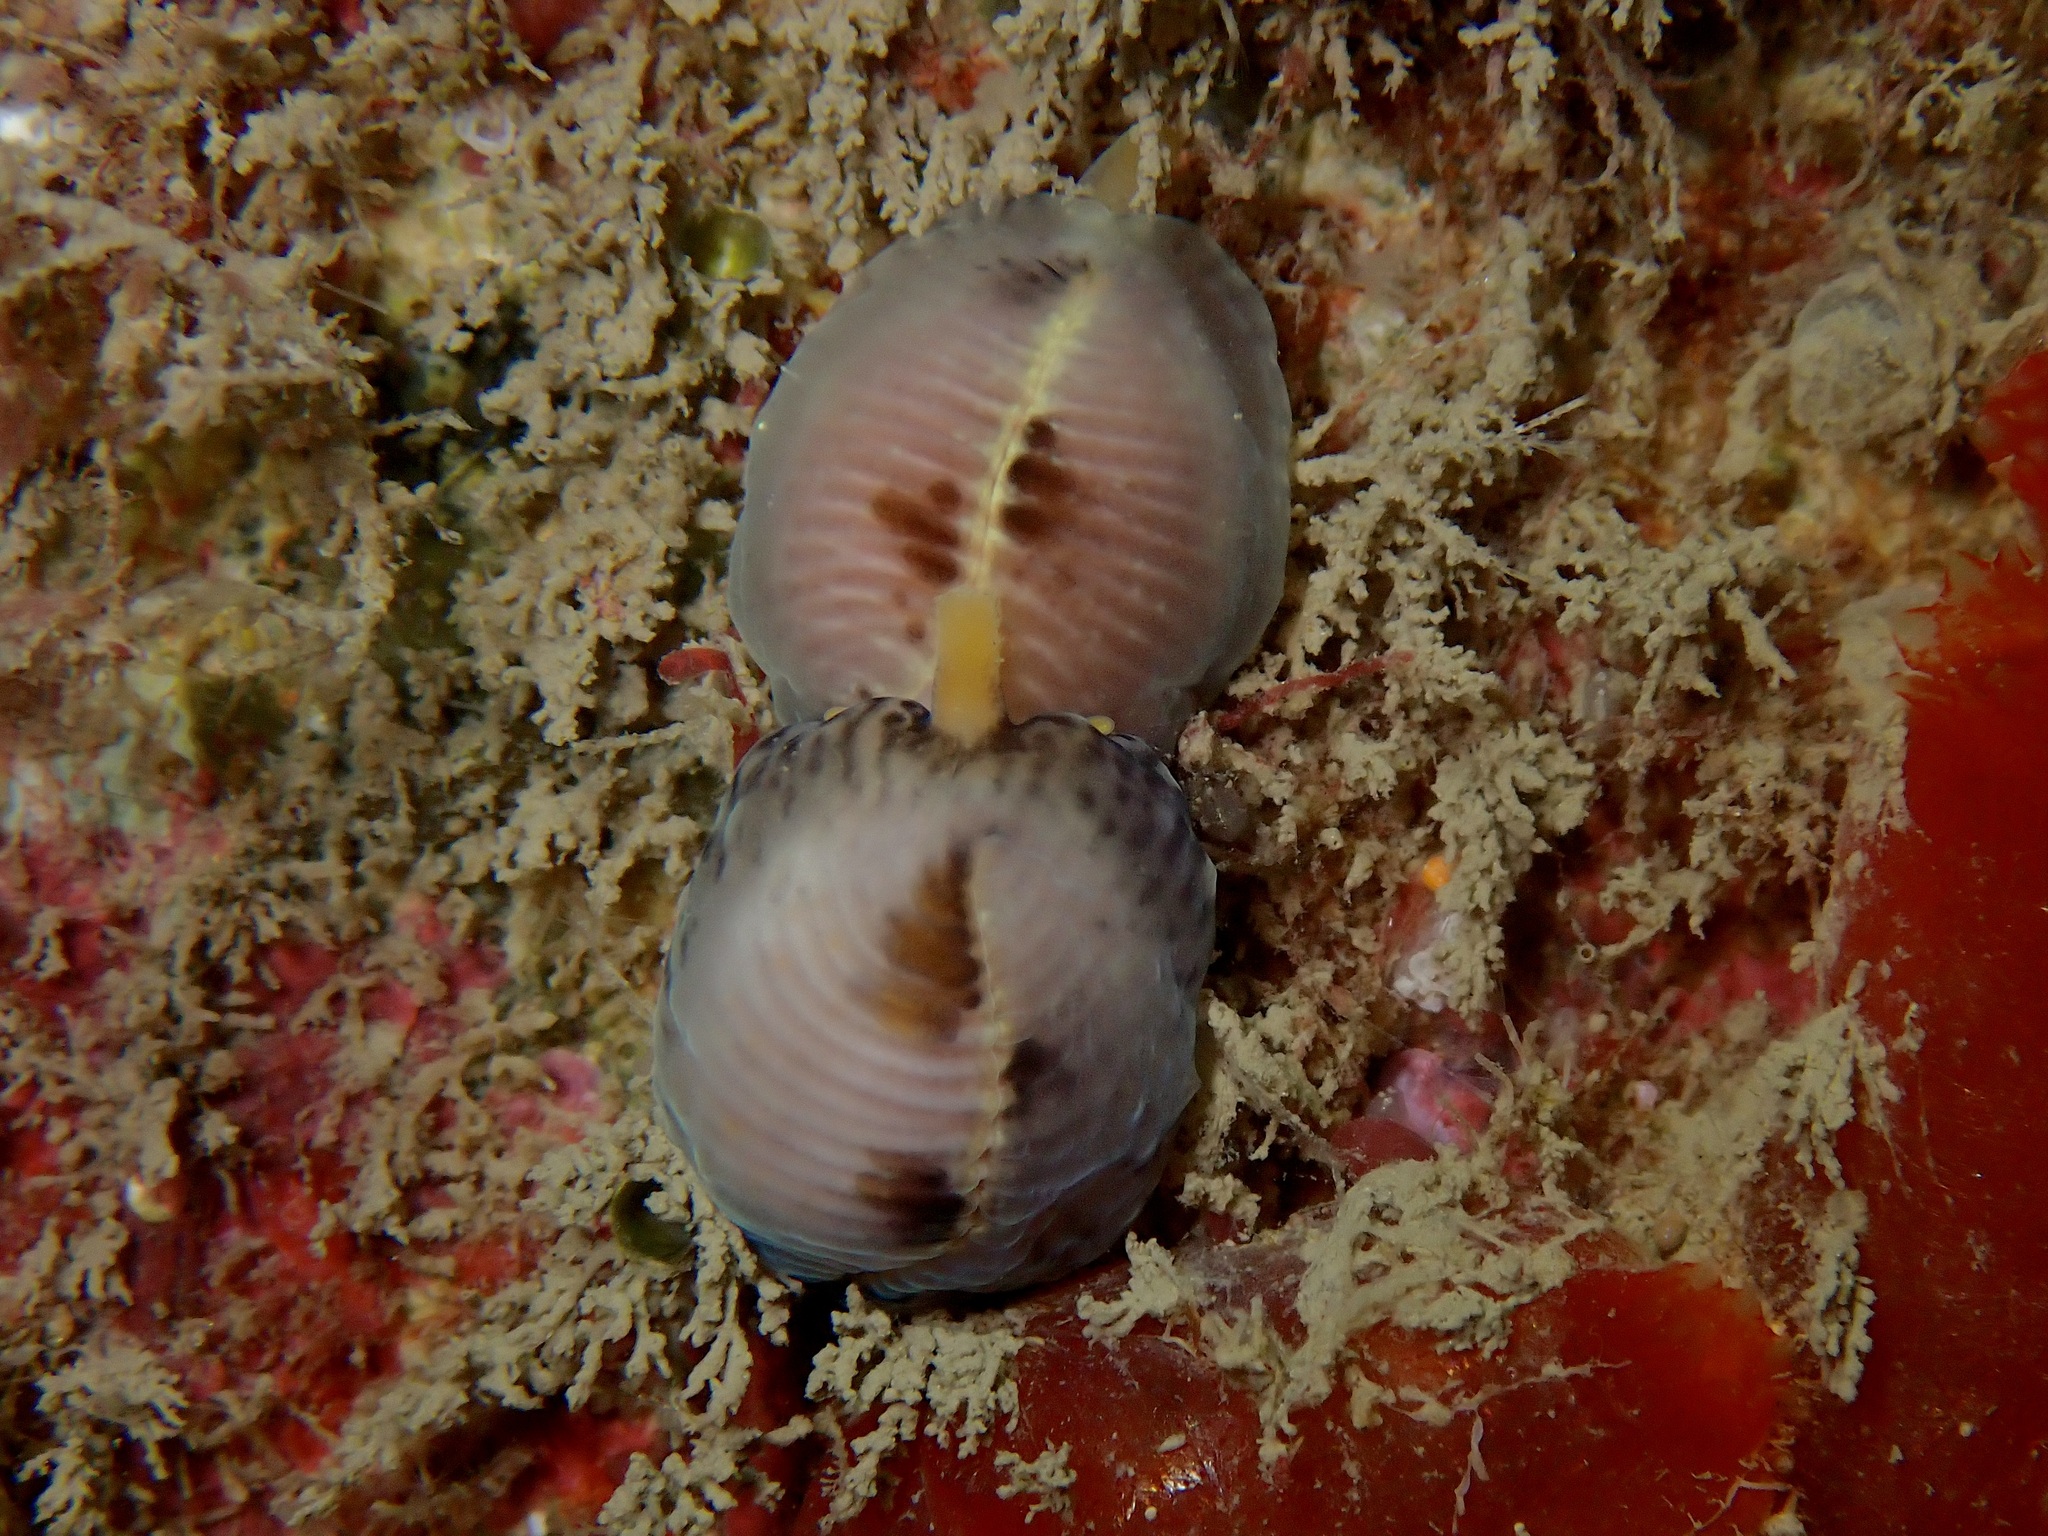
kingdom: Animalia
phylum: Mollusca
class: Gastropoda
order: Littorinimorpha
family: Triviidae
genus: Trivia
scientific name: Trivia arctica
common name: Arctic cowrie
